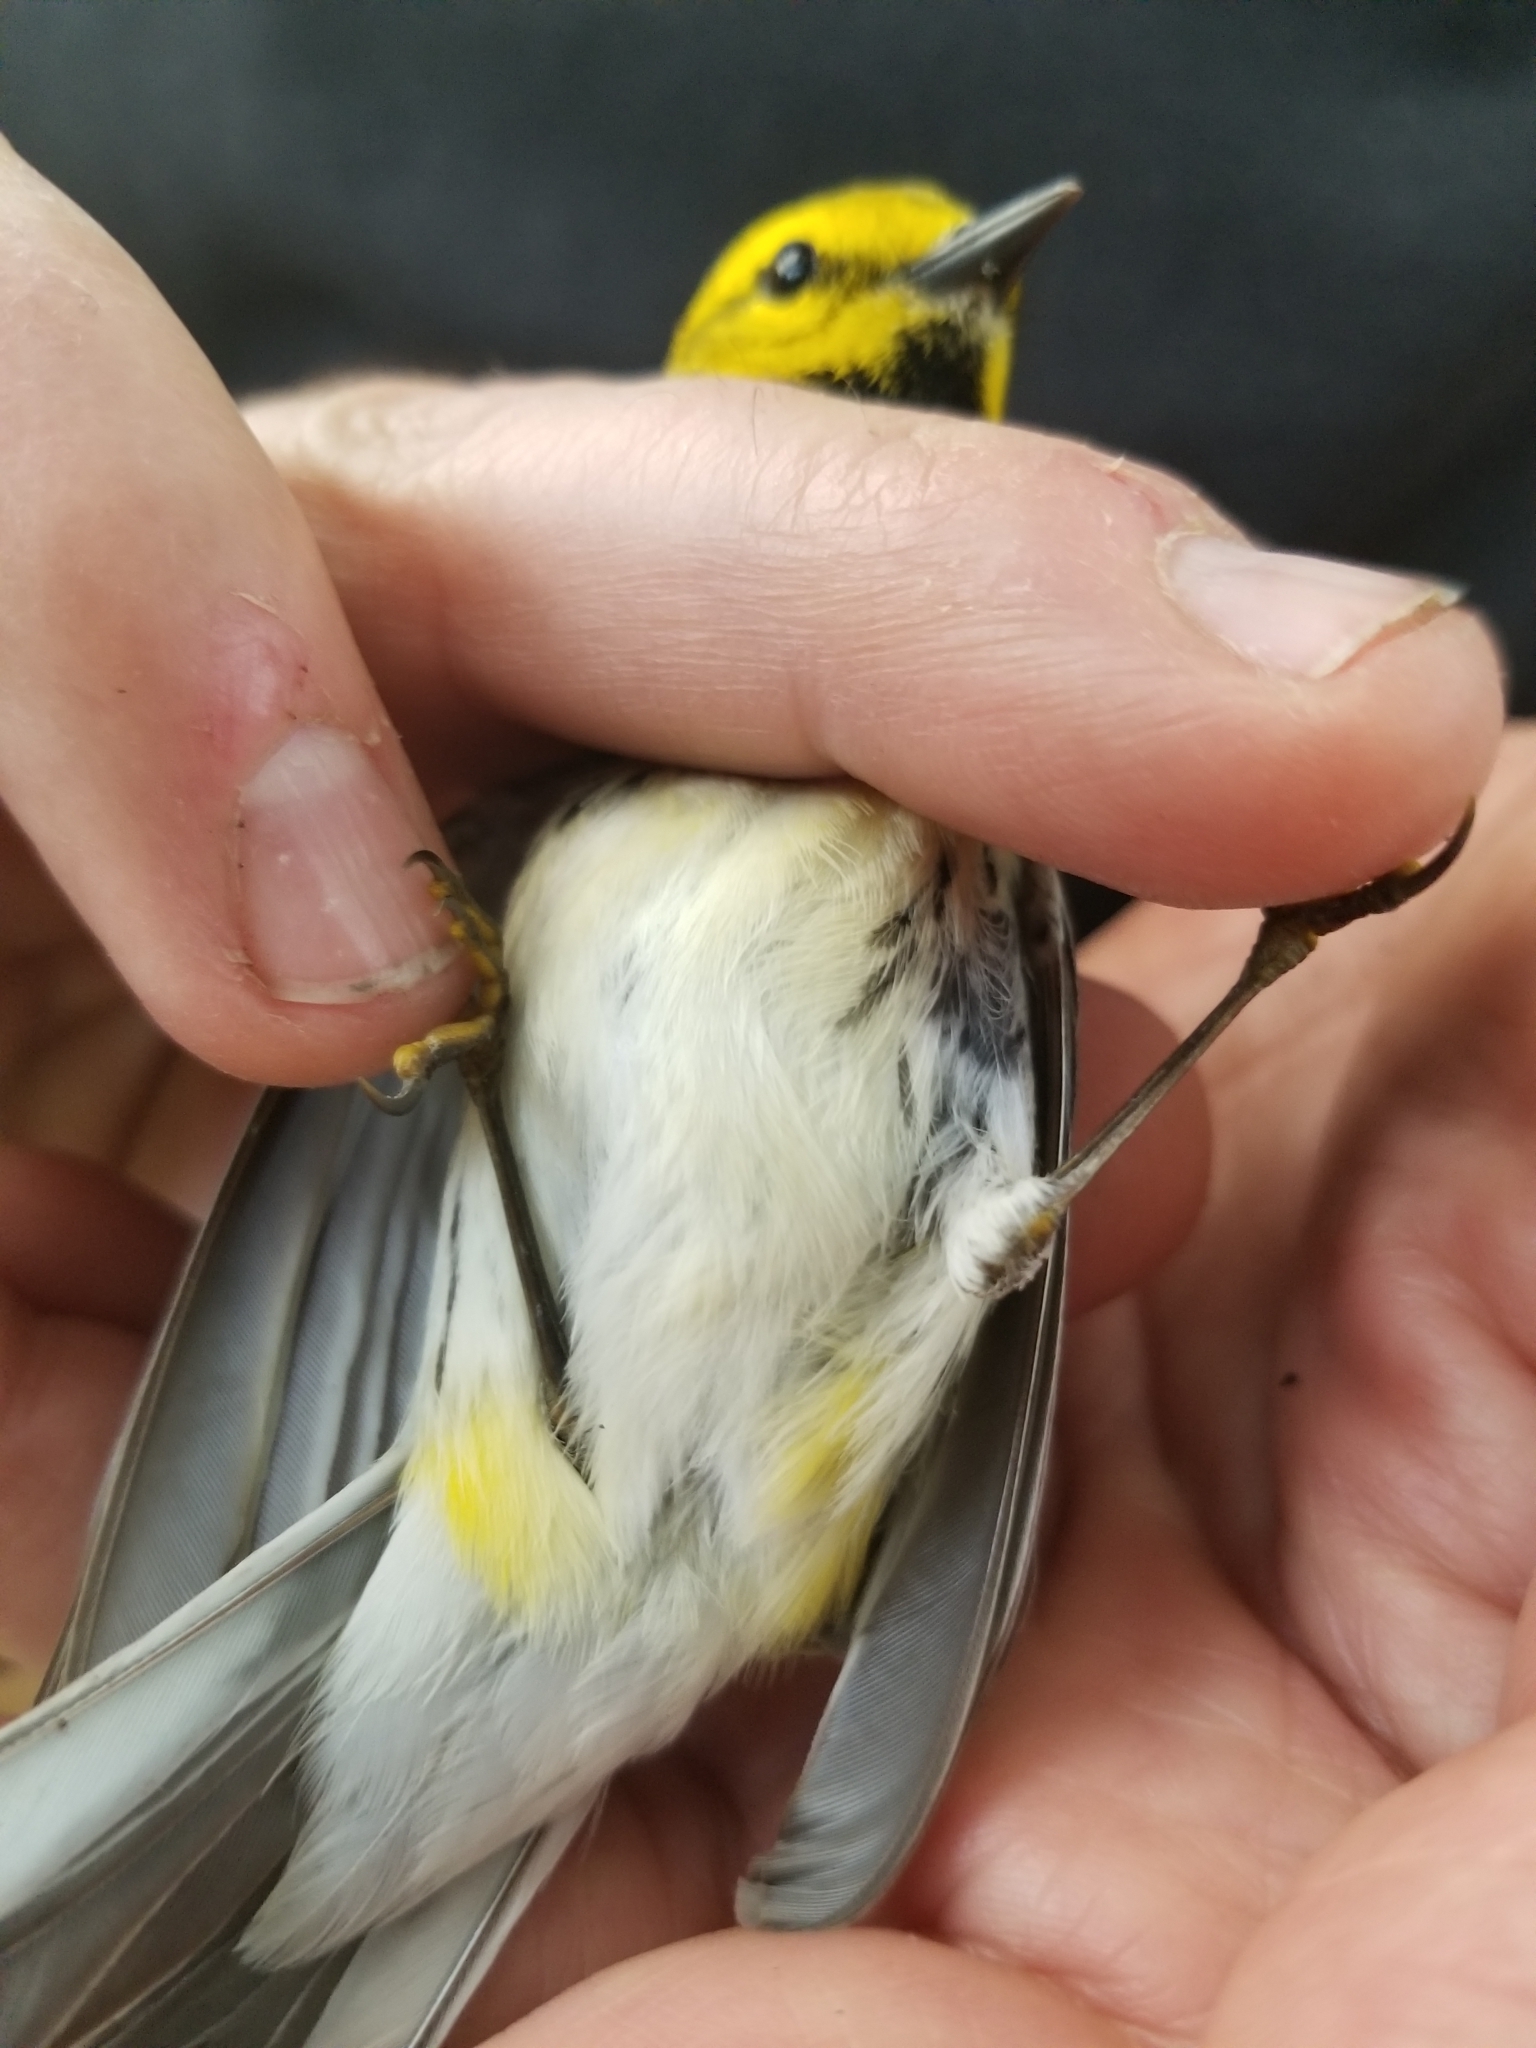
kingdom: Animalia
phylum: Chordata
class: Aves
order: Passeriformes
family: Parulidae
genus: Setophaga
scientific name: Setophaga virens
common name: Black-throated green warbler
